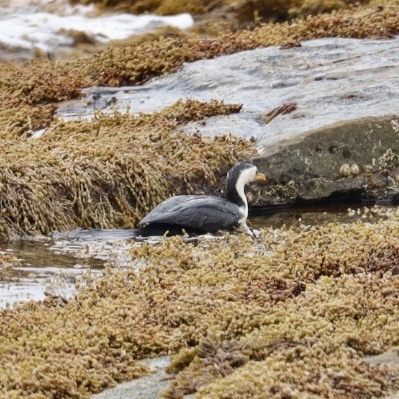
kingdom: Animalia
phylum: Chordata
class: Aves
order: Suliformes
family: Phalacrocoracidae
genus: Microcarbo
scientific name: Microcarbo melanoleucos
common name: Little pied cormorant
